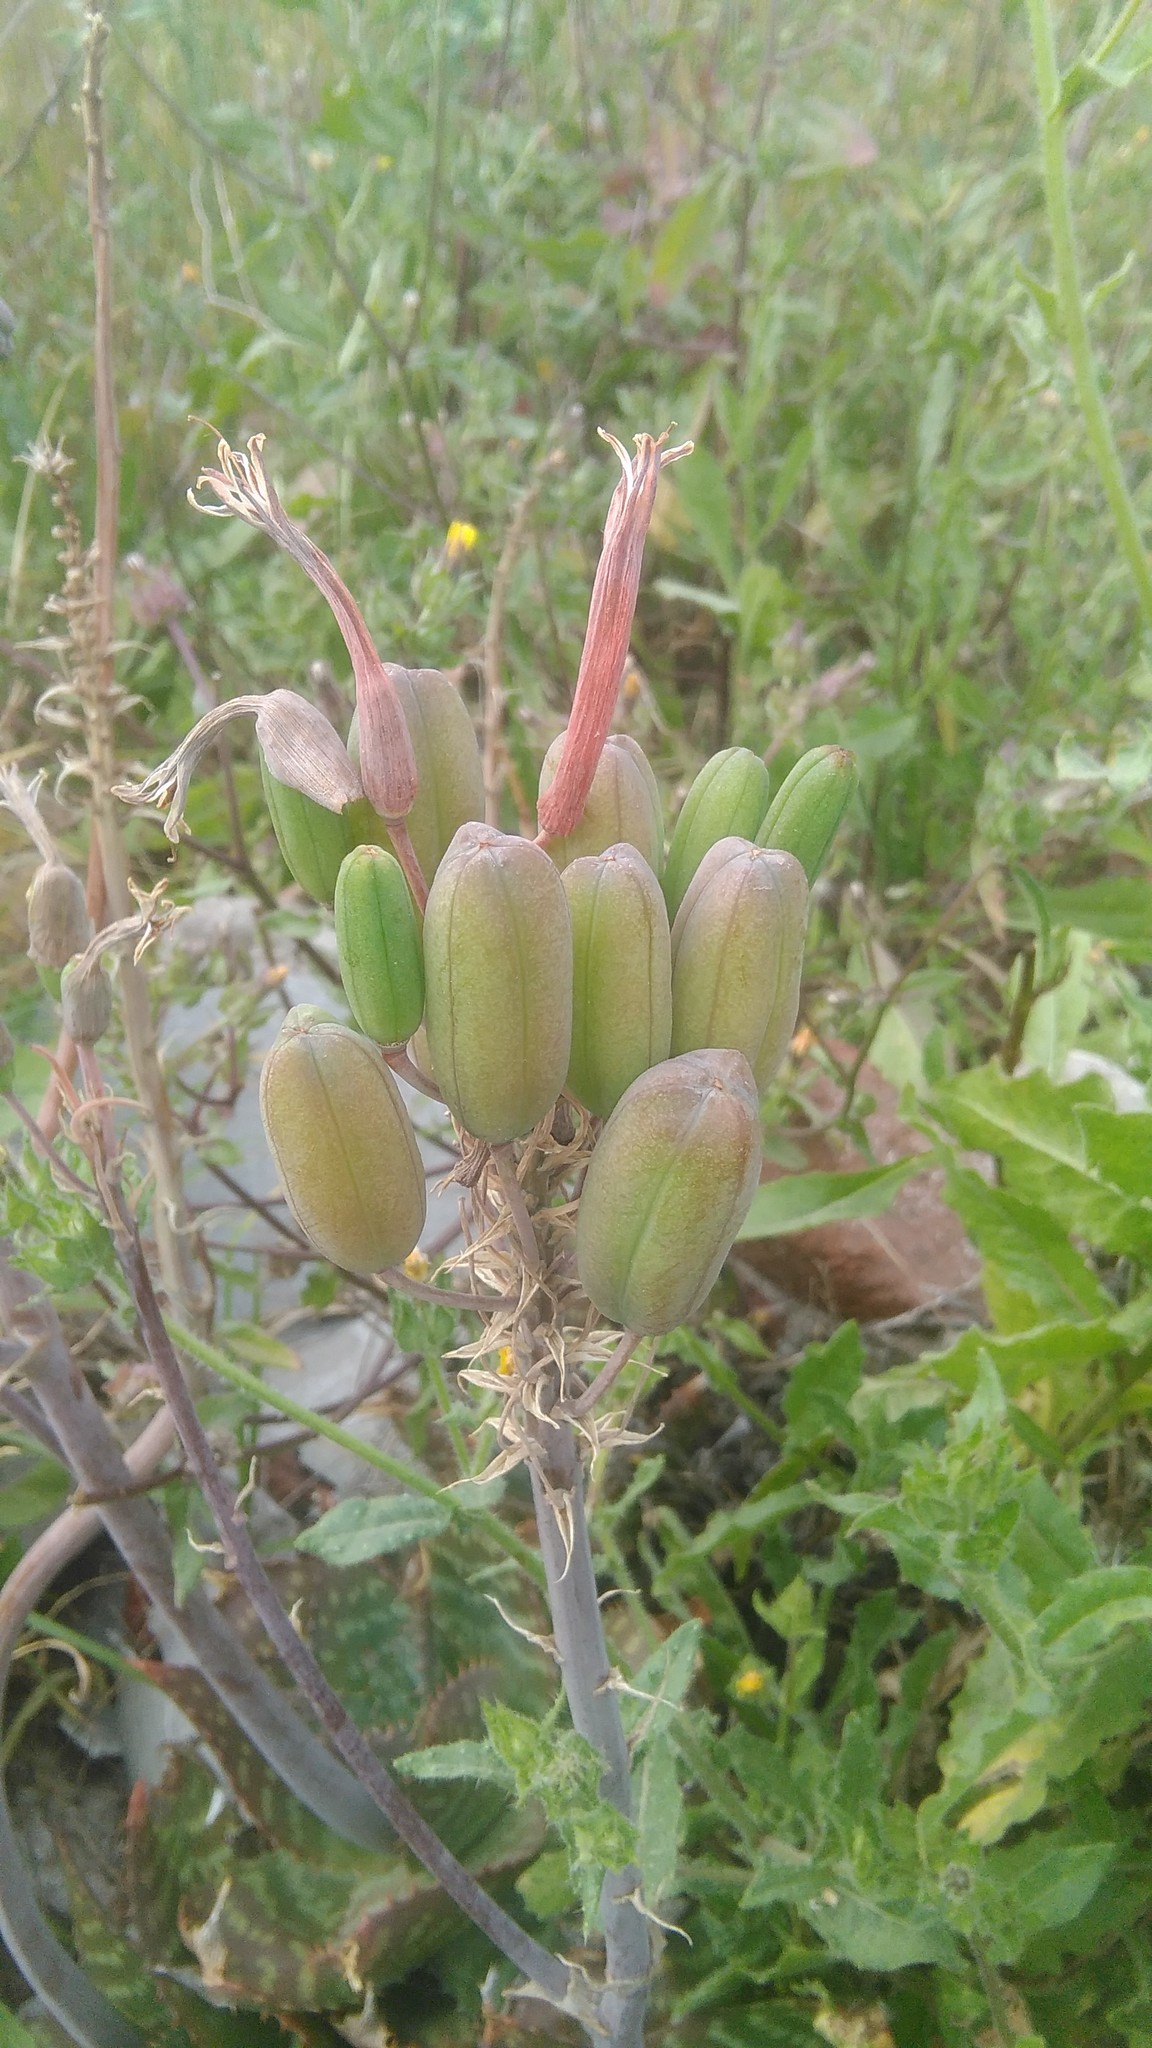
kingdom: Plantae
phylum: Tracheophyta
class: Liliopsida
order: Asparagales
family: Asphodelaceae
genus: Aloe
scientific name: Aloe maculata
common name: Broadleaf aloe
